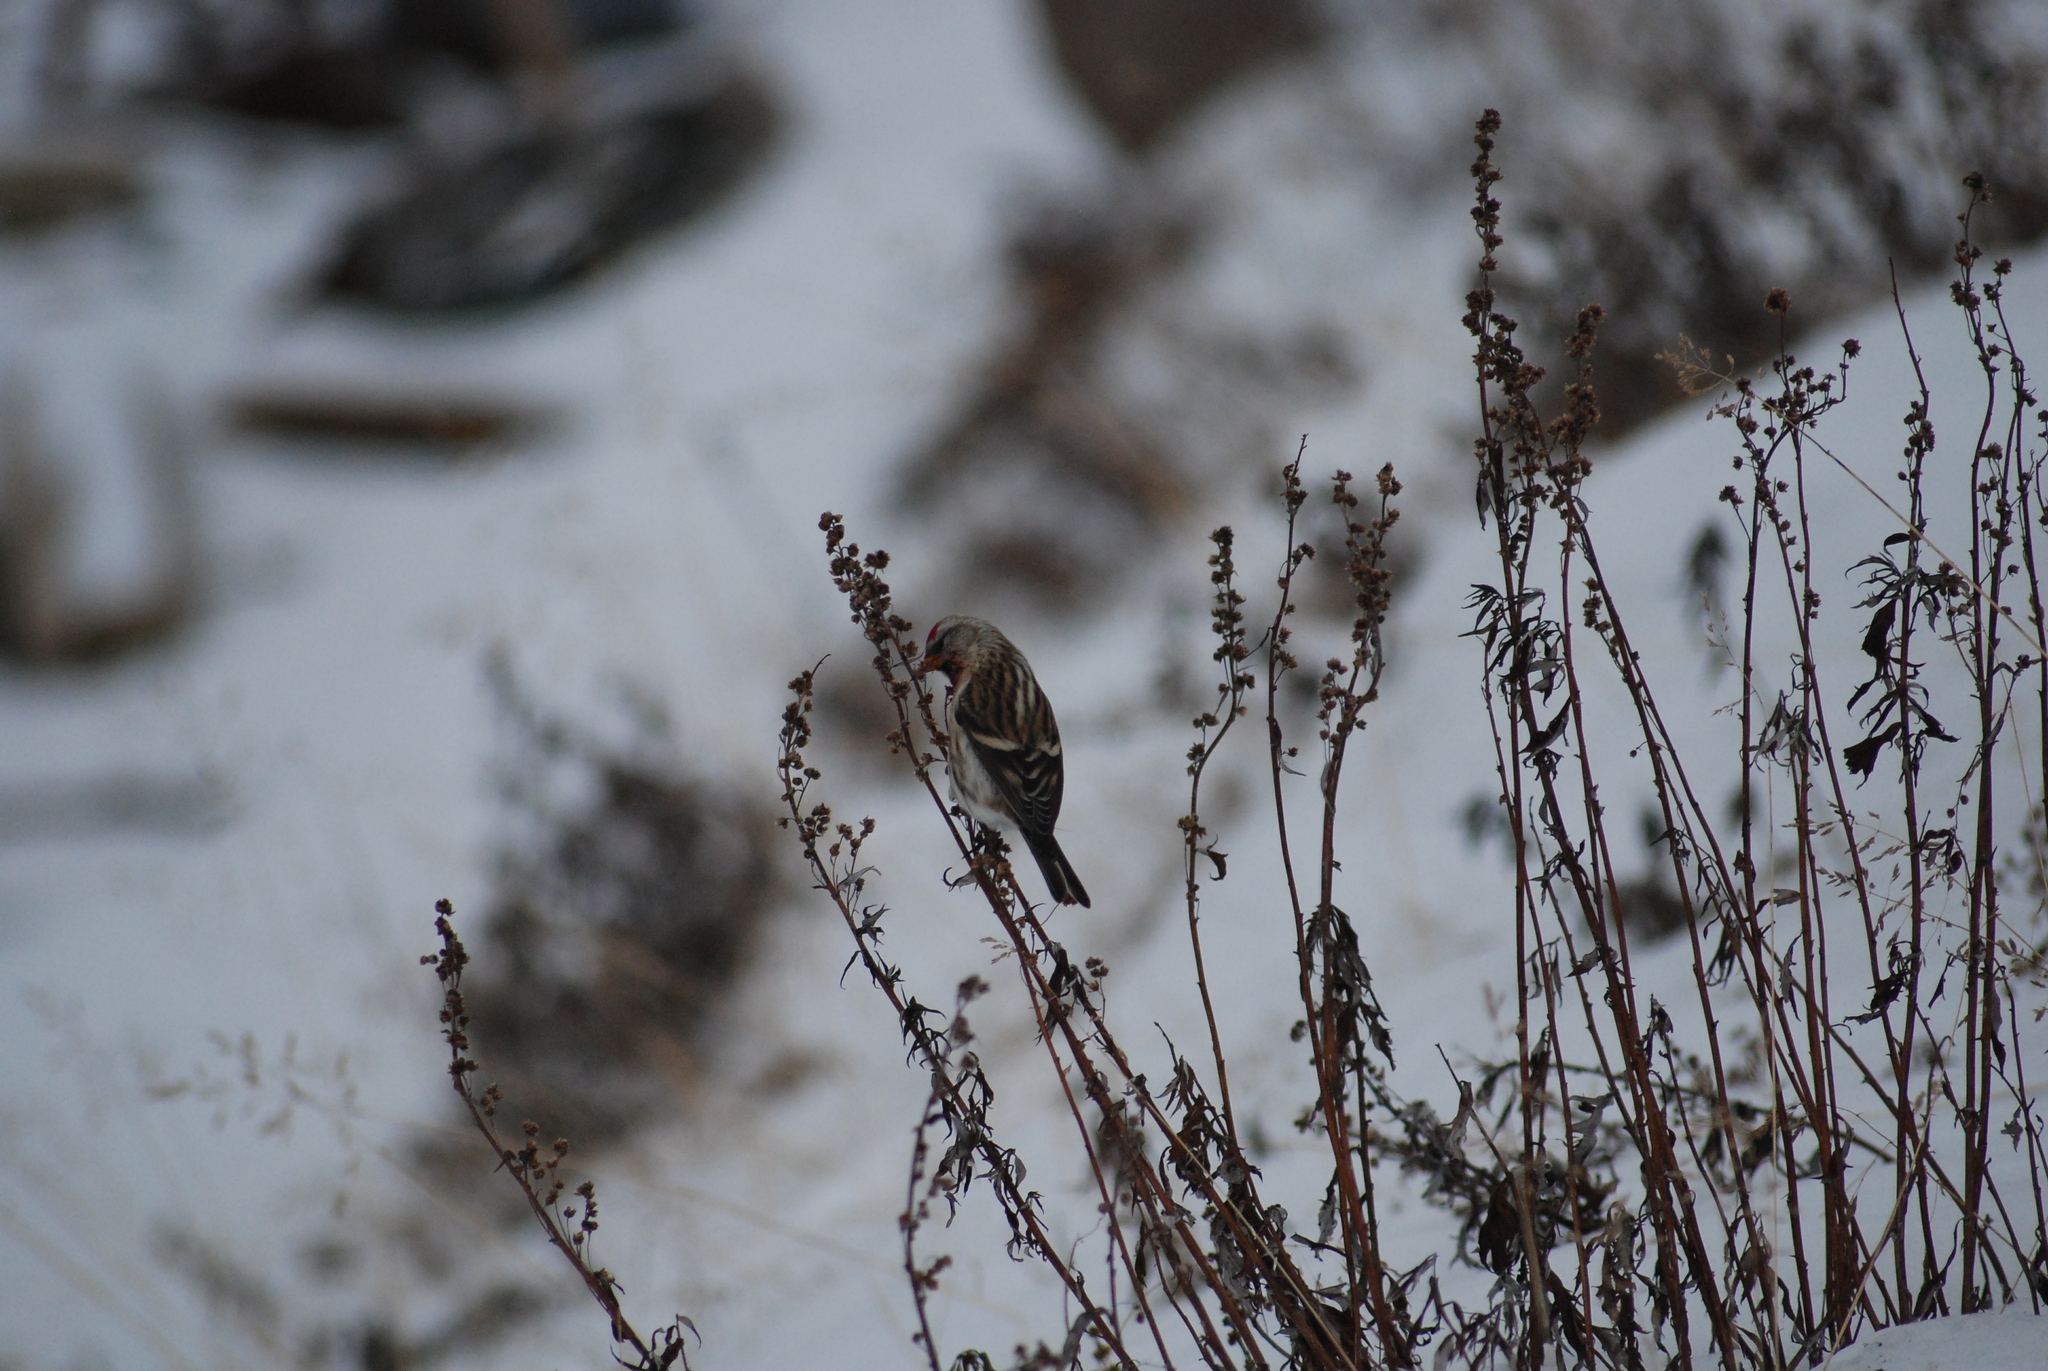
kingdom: Animalia
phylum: Chordata
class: Aves
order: Passeriformes
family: Fringillidae
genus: Acanthis
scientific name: Acanthis flammea
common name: Common redpoll
